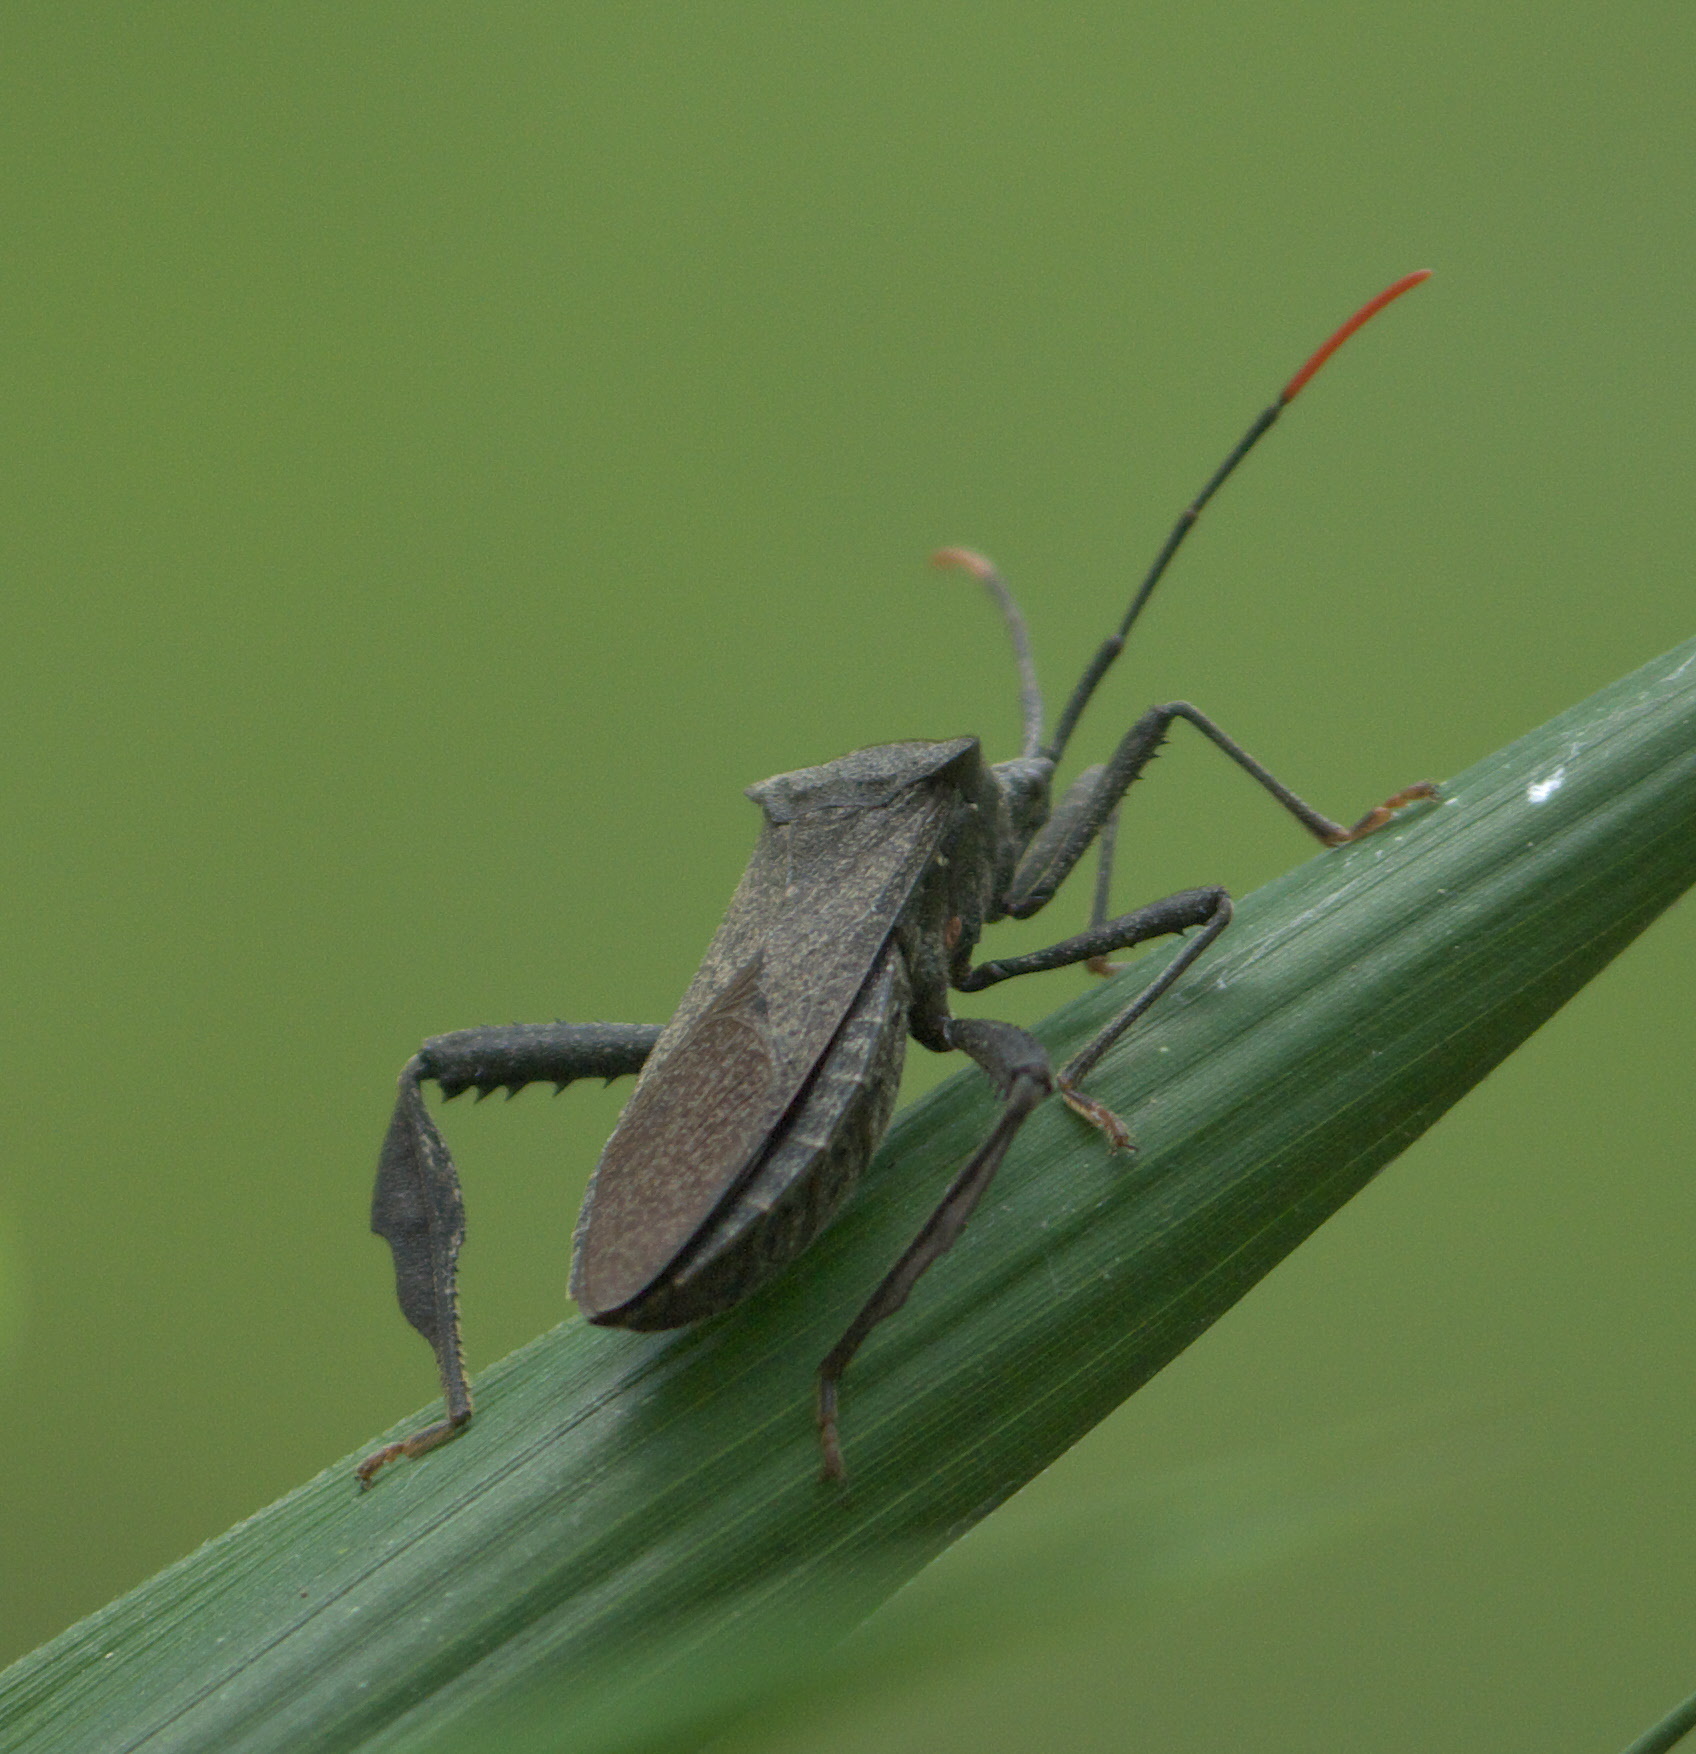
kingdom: Animalia
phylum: Arthropoda
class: Insecta
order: Hemiptera
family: Coreidae
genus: Acanthocephala
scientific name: Acanthocephala terminalis
